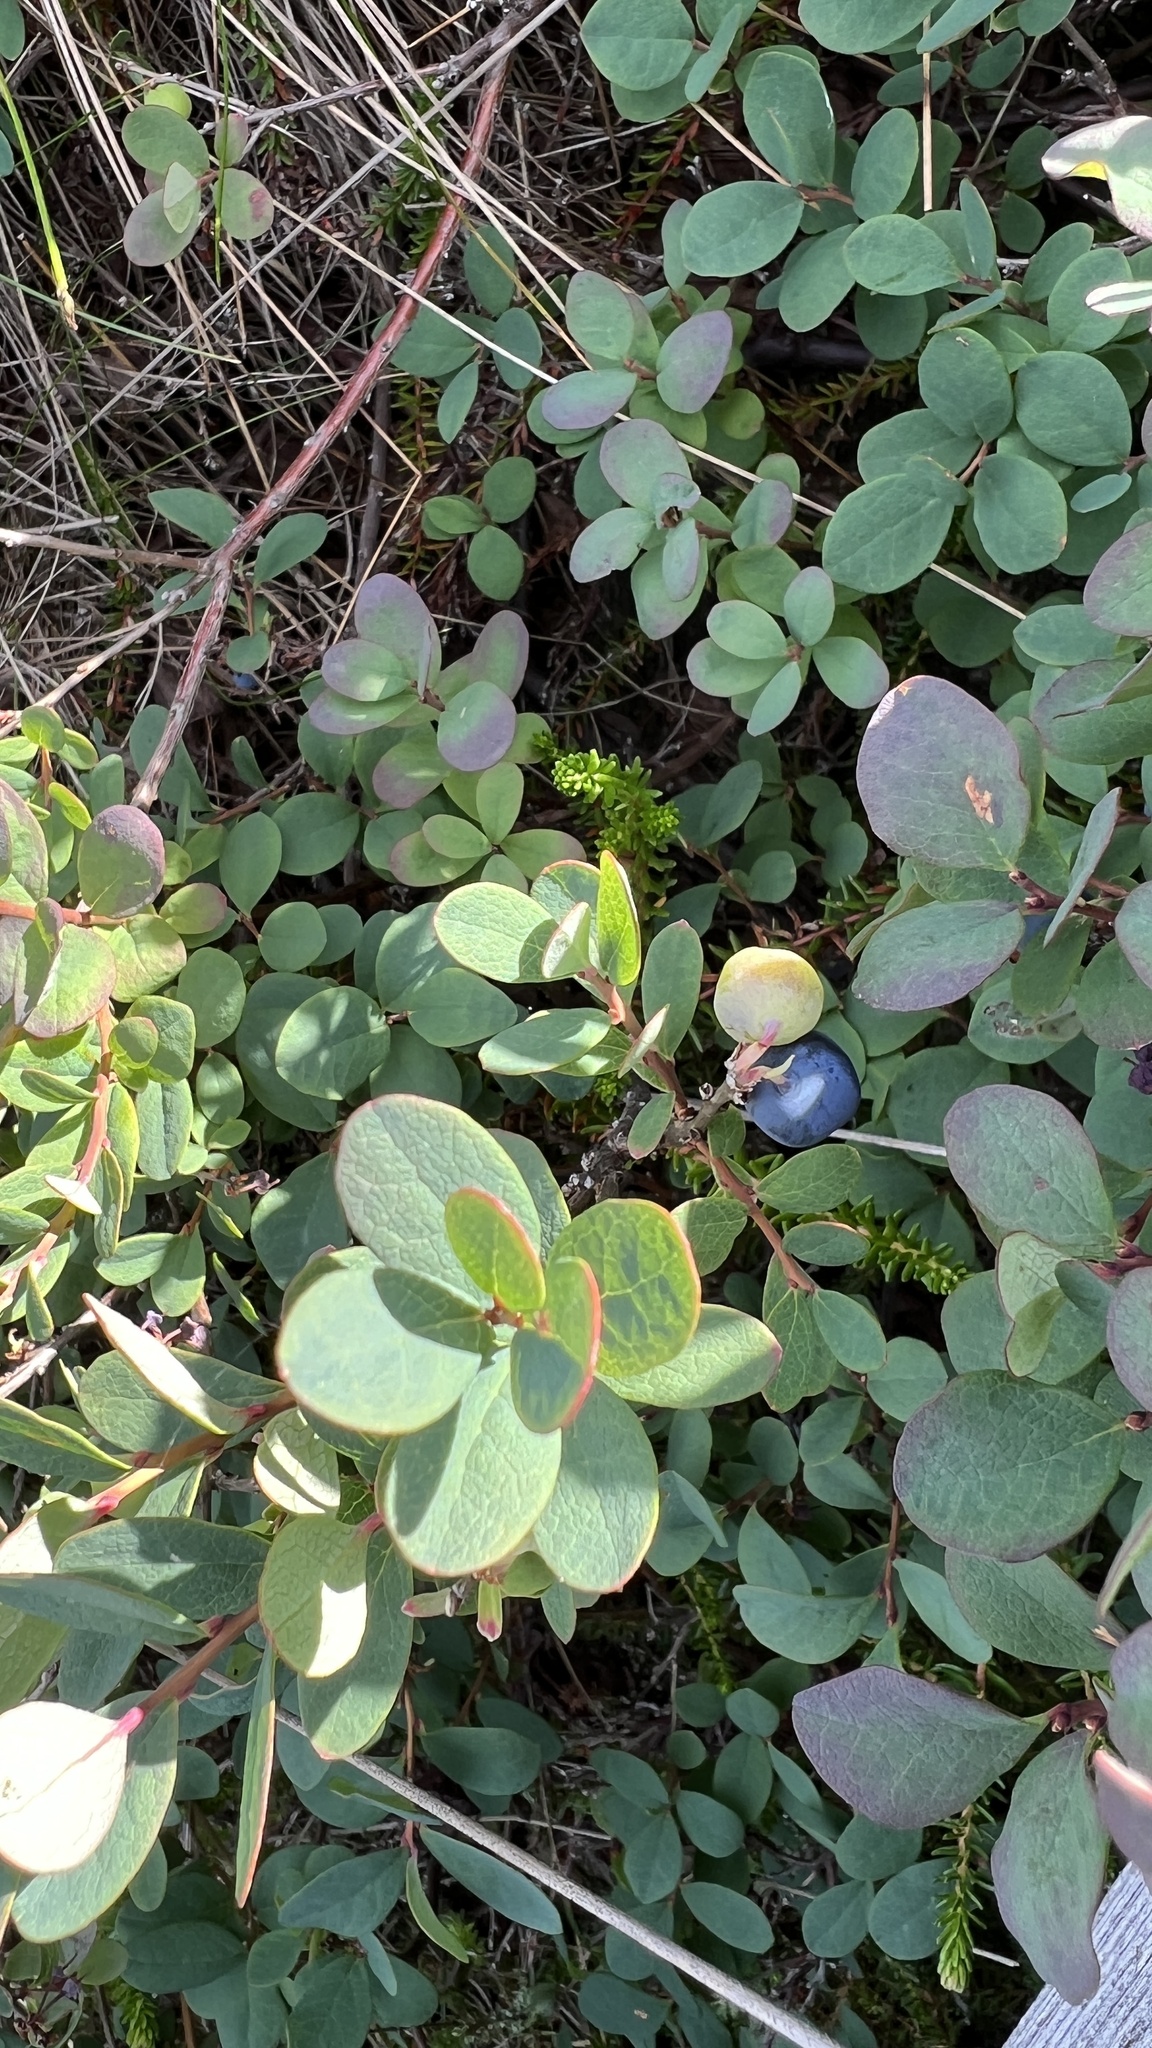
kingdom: Plantae
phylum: Tracheophyta
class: Magnoliopsida
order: Ericales
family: Ericaceae
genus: Vaccinium
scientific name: Vaccinium uliginosum
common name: Bog bilberry
